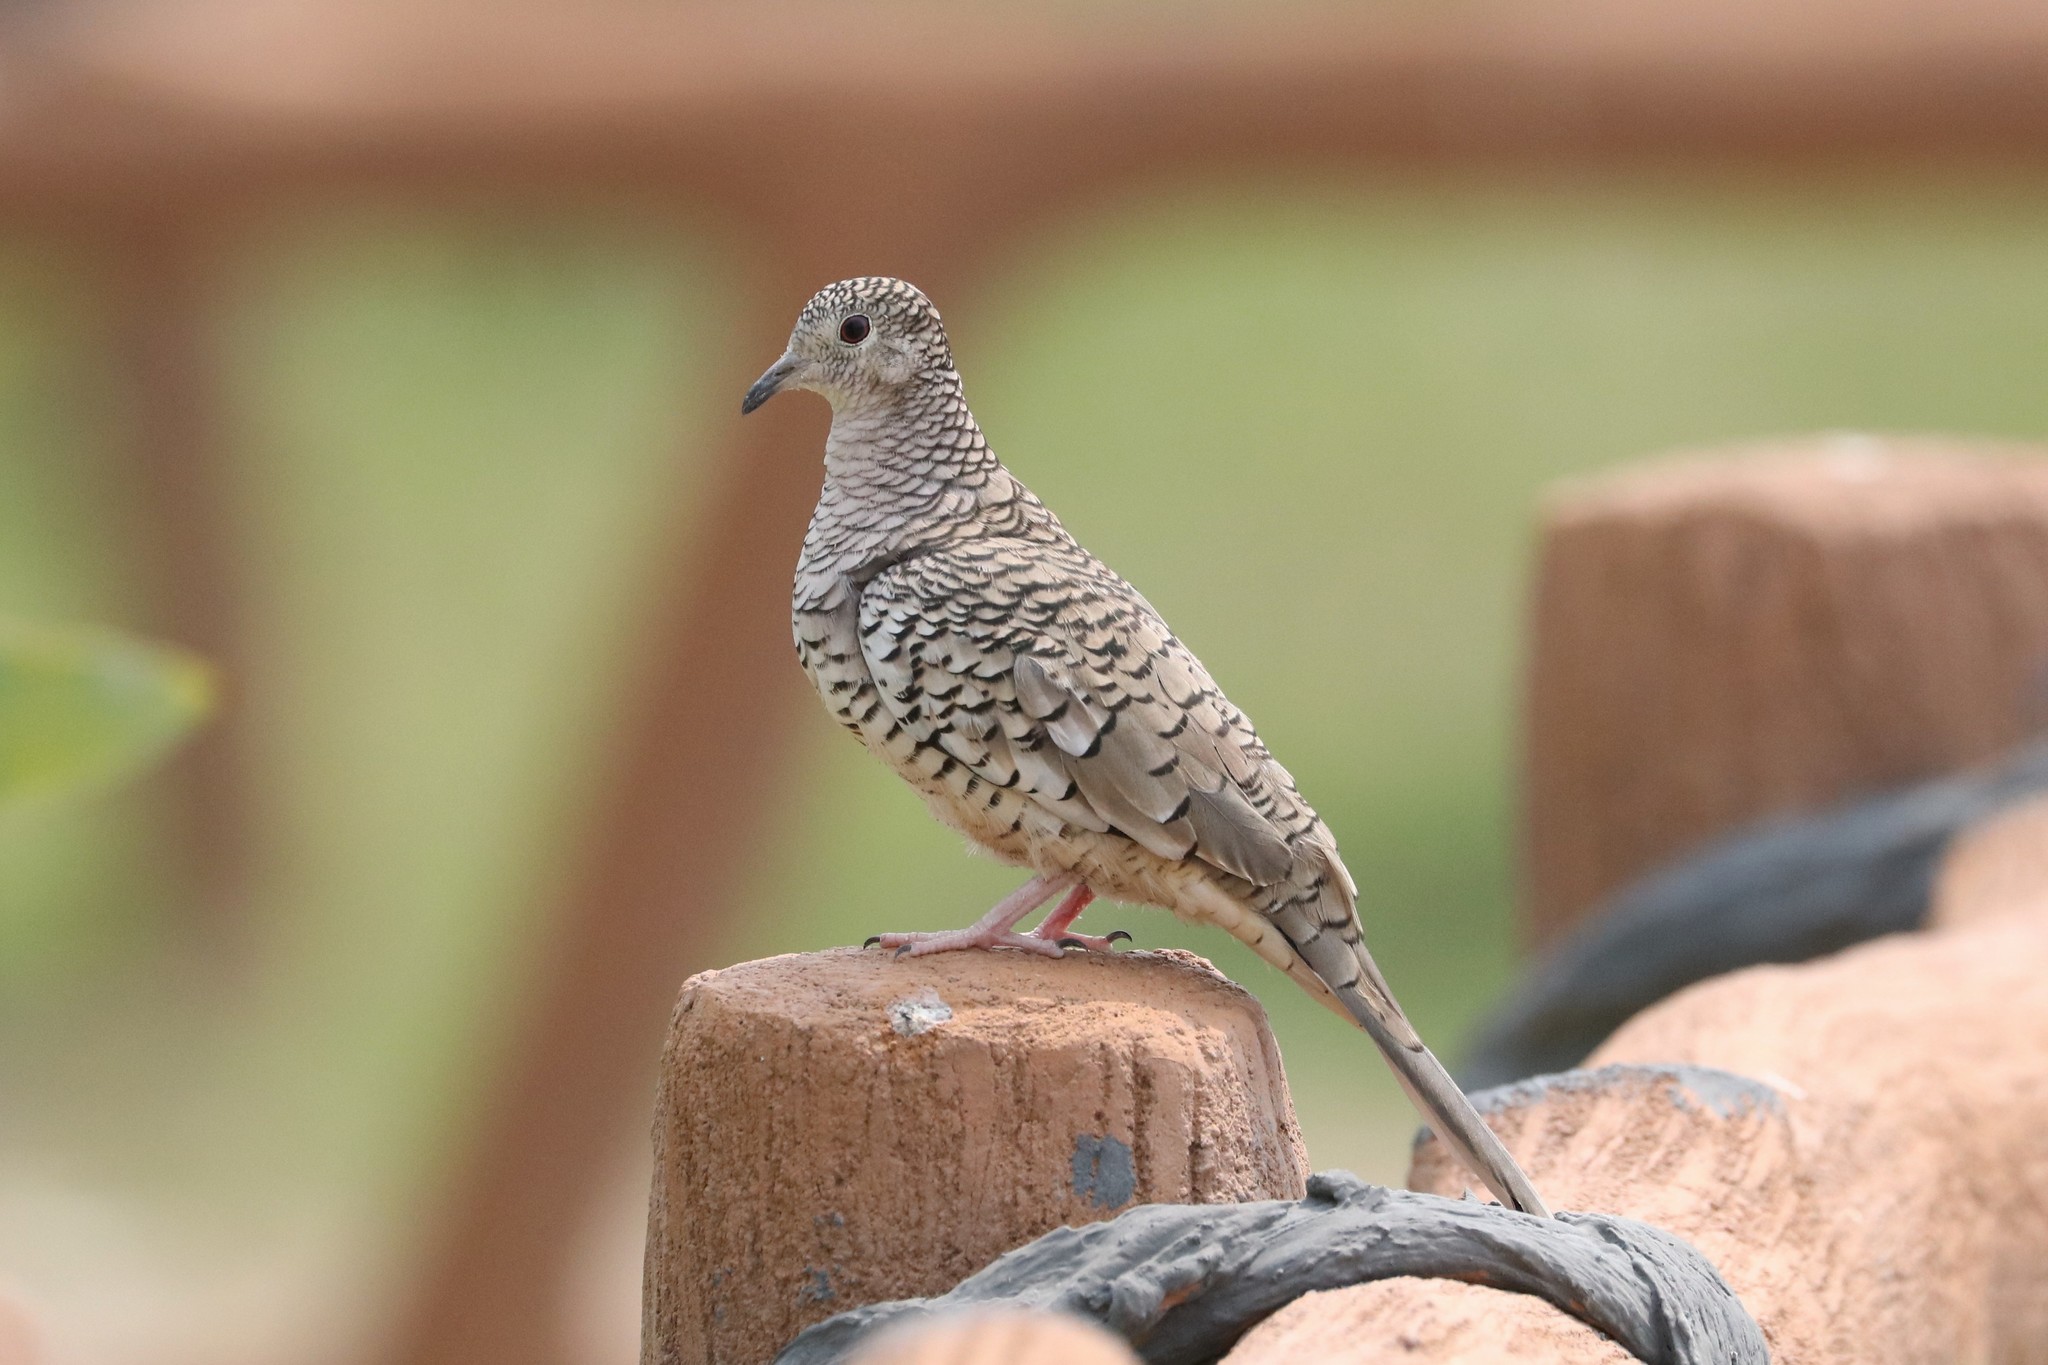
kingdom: Animalia
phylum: Chordata
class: Aves
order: Columbiformes
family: Columbidae
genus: Columbina
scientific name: Columbina squammata
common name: Scaled dove
